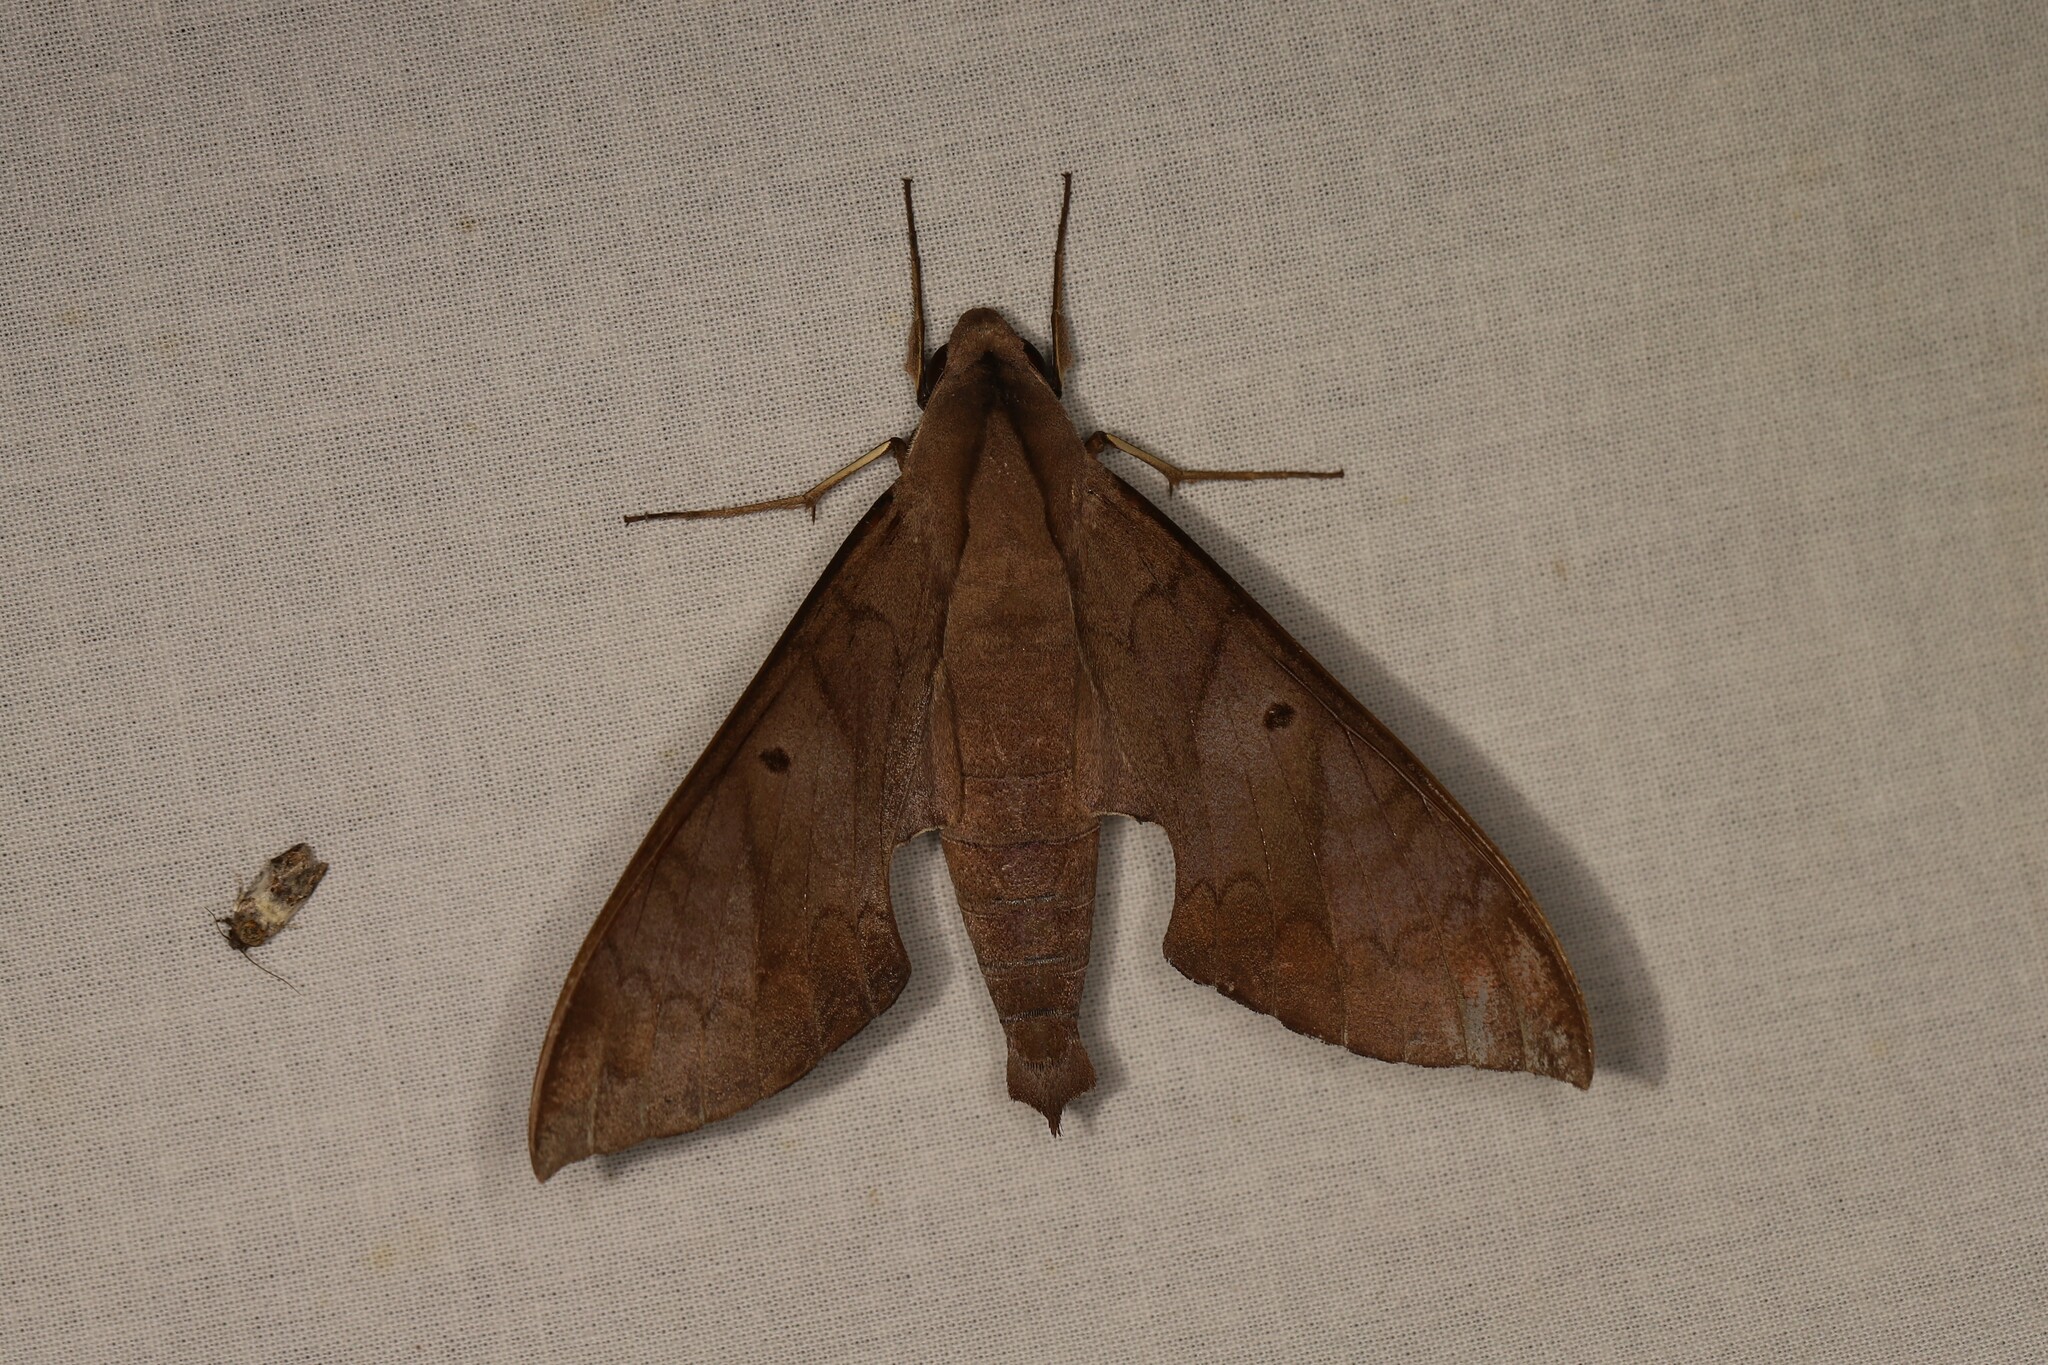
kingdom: Animalia
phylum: Arthropoda
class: Insecta
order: Lepidoptera
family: Sphingidae
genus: Pachylia
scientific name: Pachylia darceta
